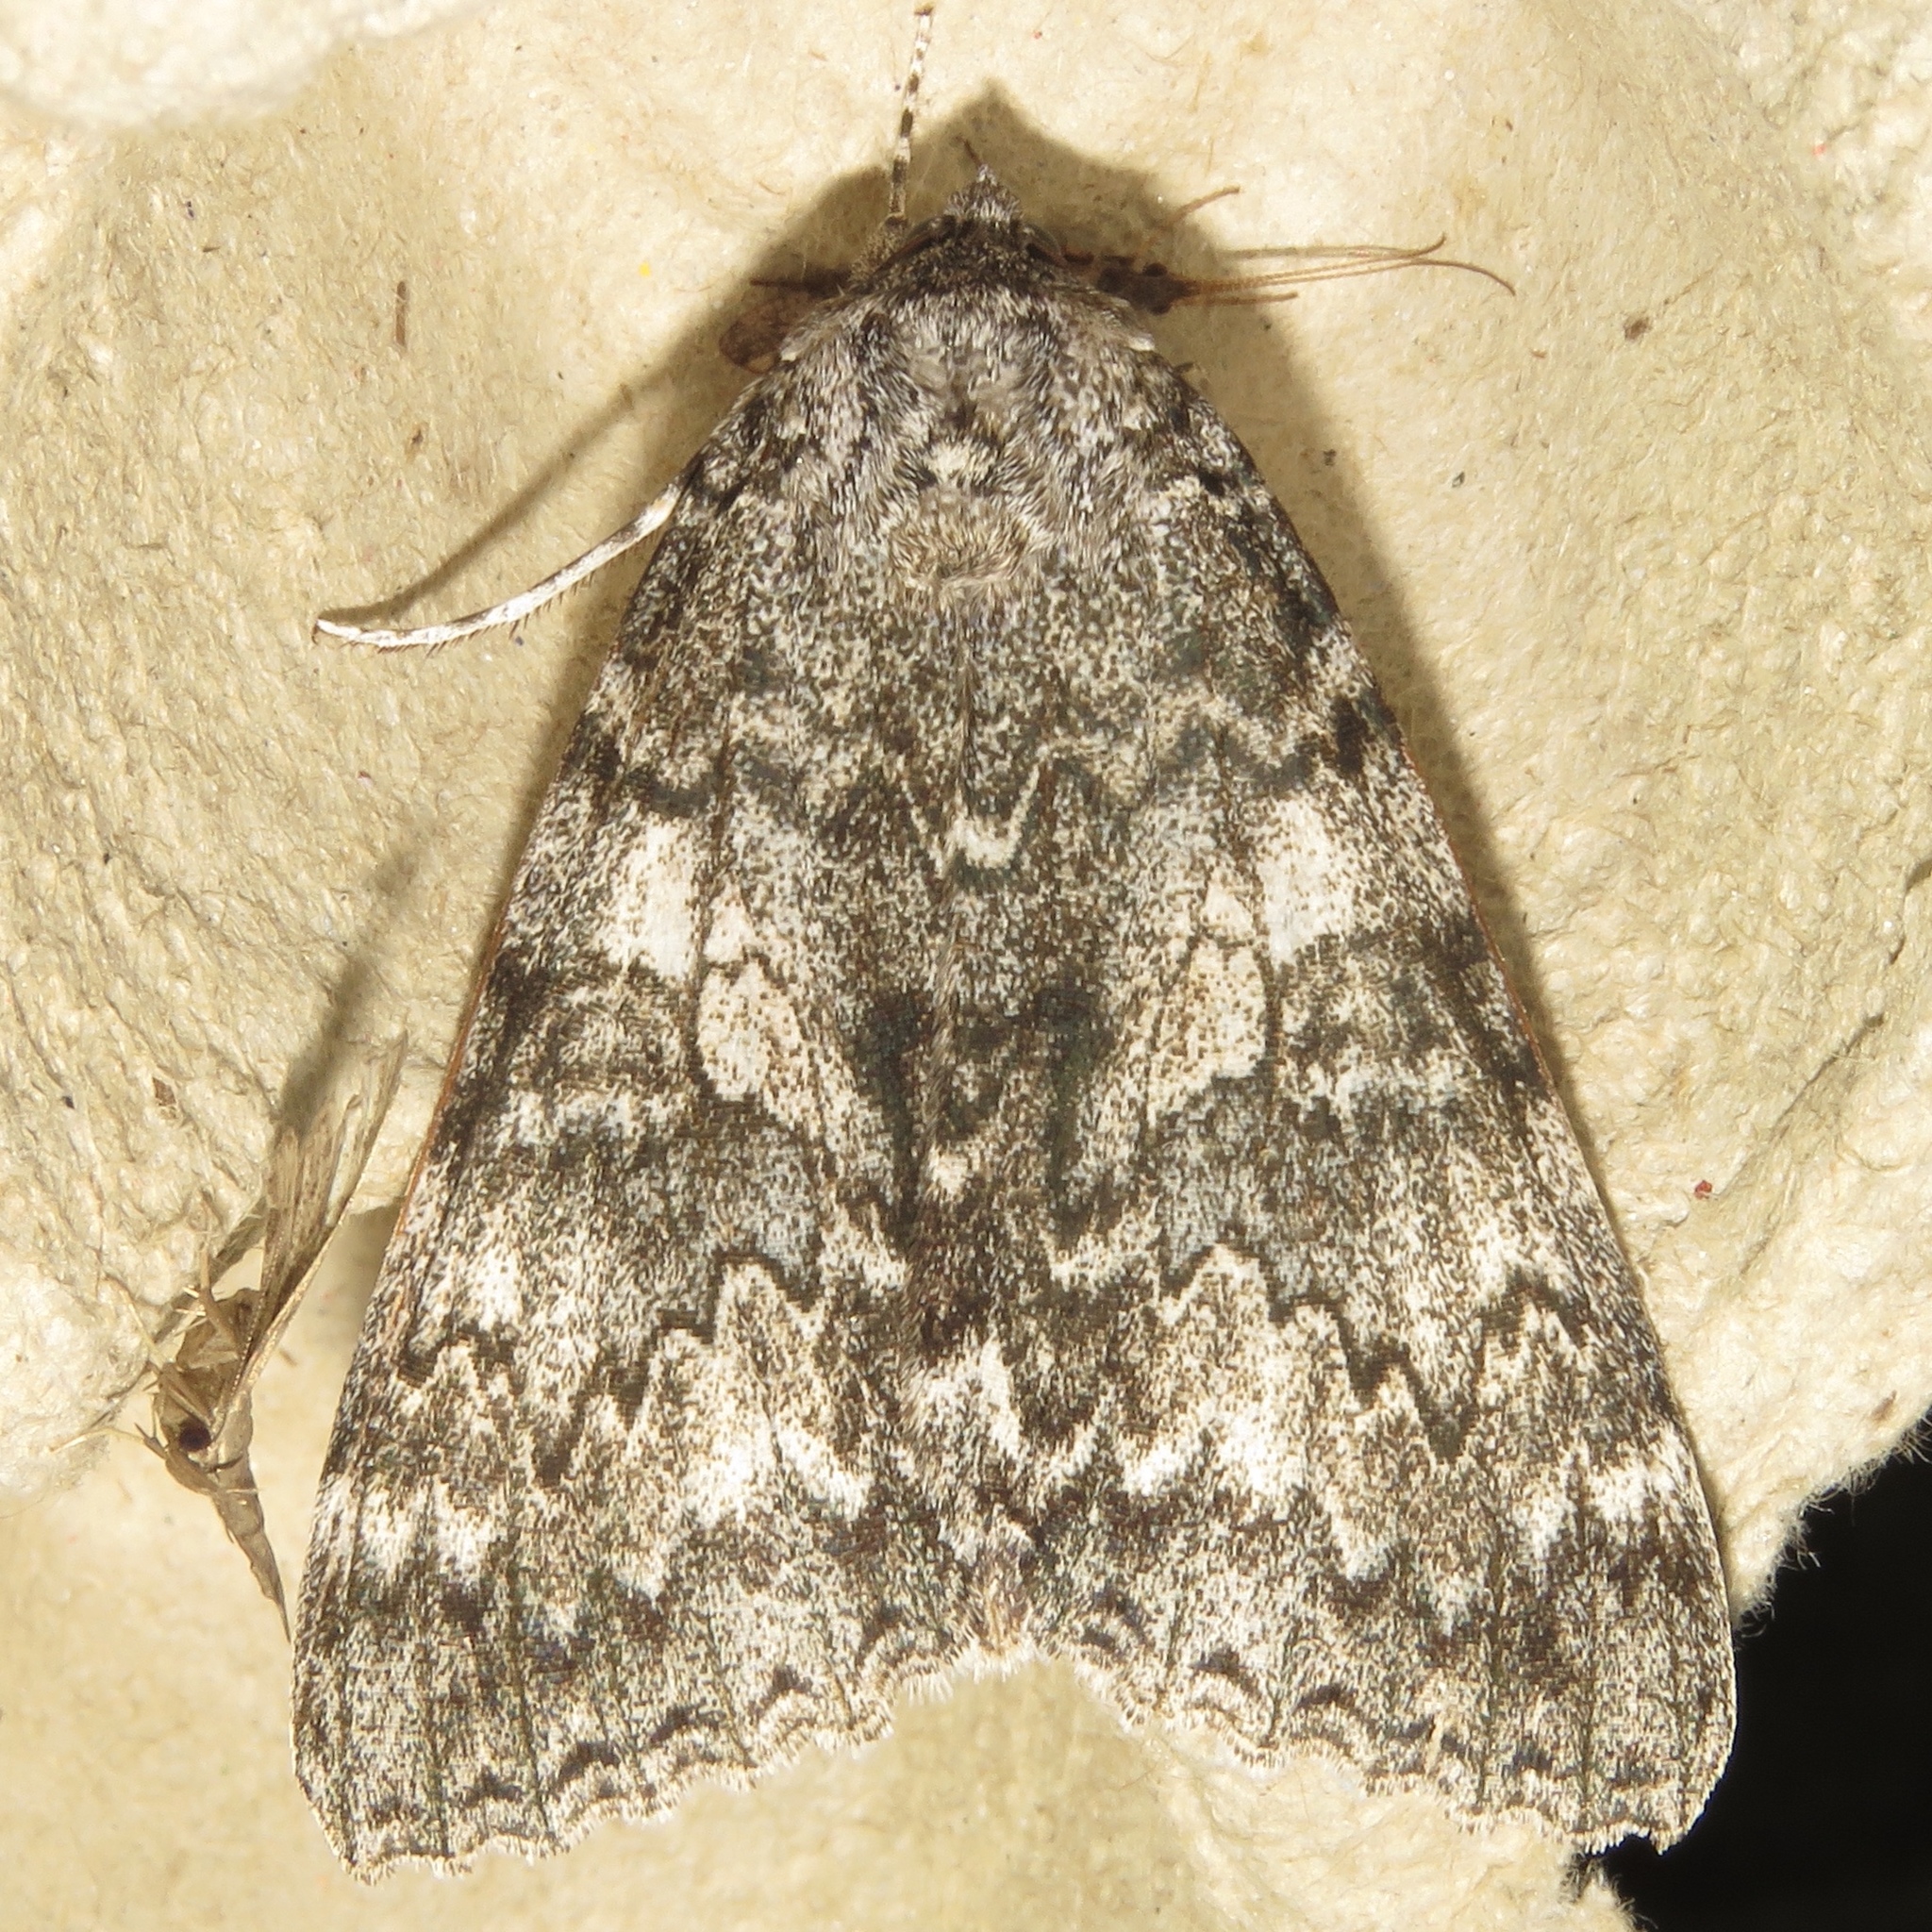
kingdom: Animalia
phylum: Arthropoda
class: Insecta
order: Lepidoptera
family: Erebidae
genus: Catocala
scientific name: Catocala unijuga
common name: Once-married underwing
